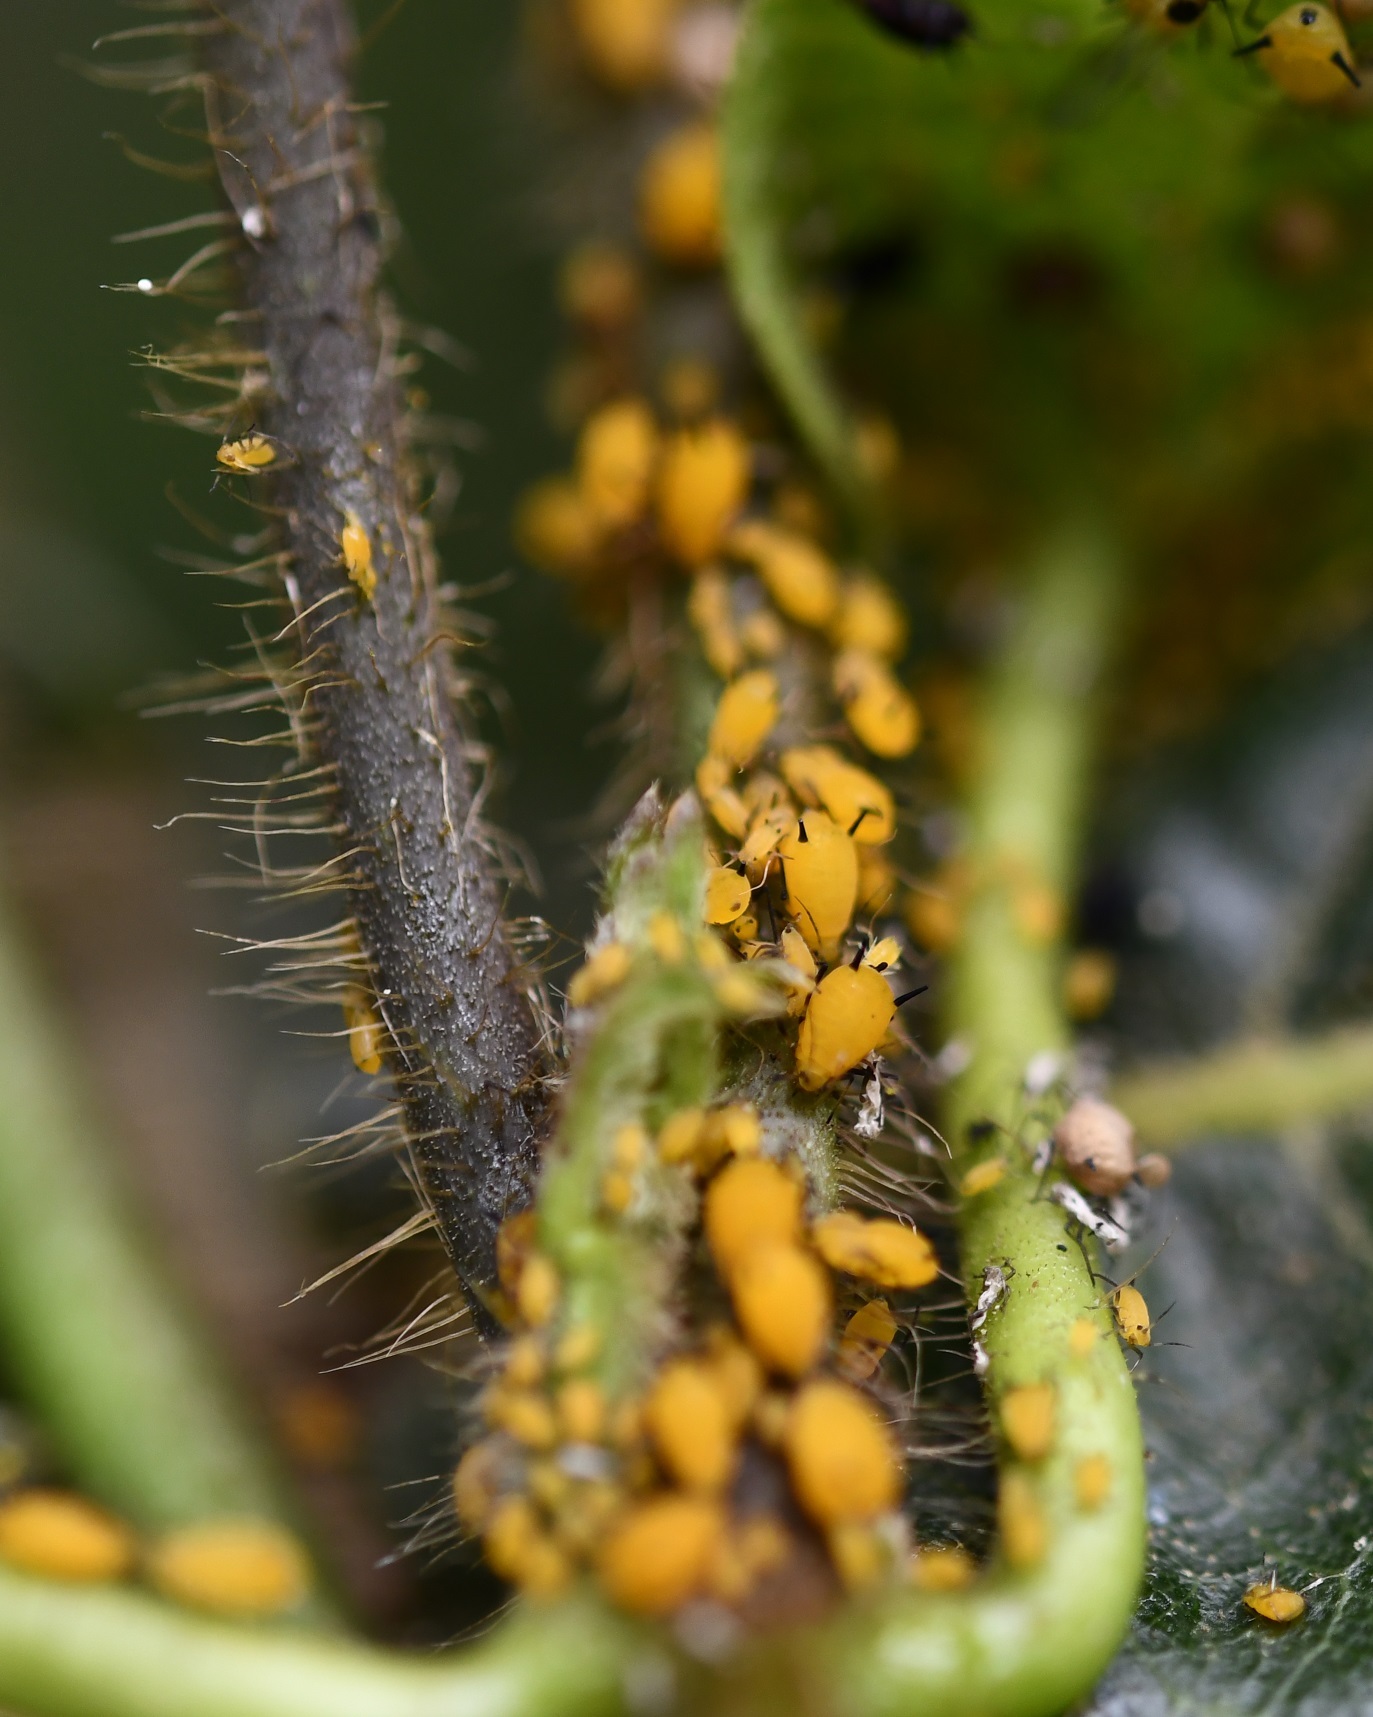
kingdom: Animalia
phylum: Arthropoda
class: Insecta
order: Hemiptera
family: Aphididae
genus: Aphis
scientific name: Aphis nerii
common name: Oleander aphid
